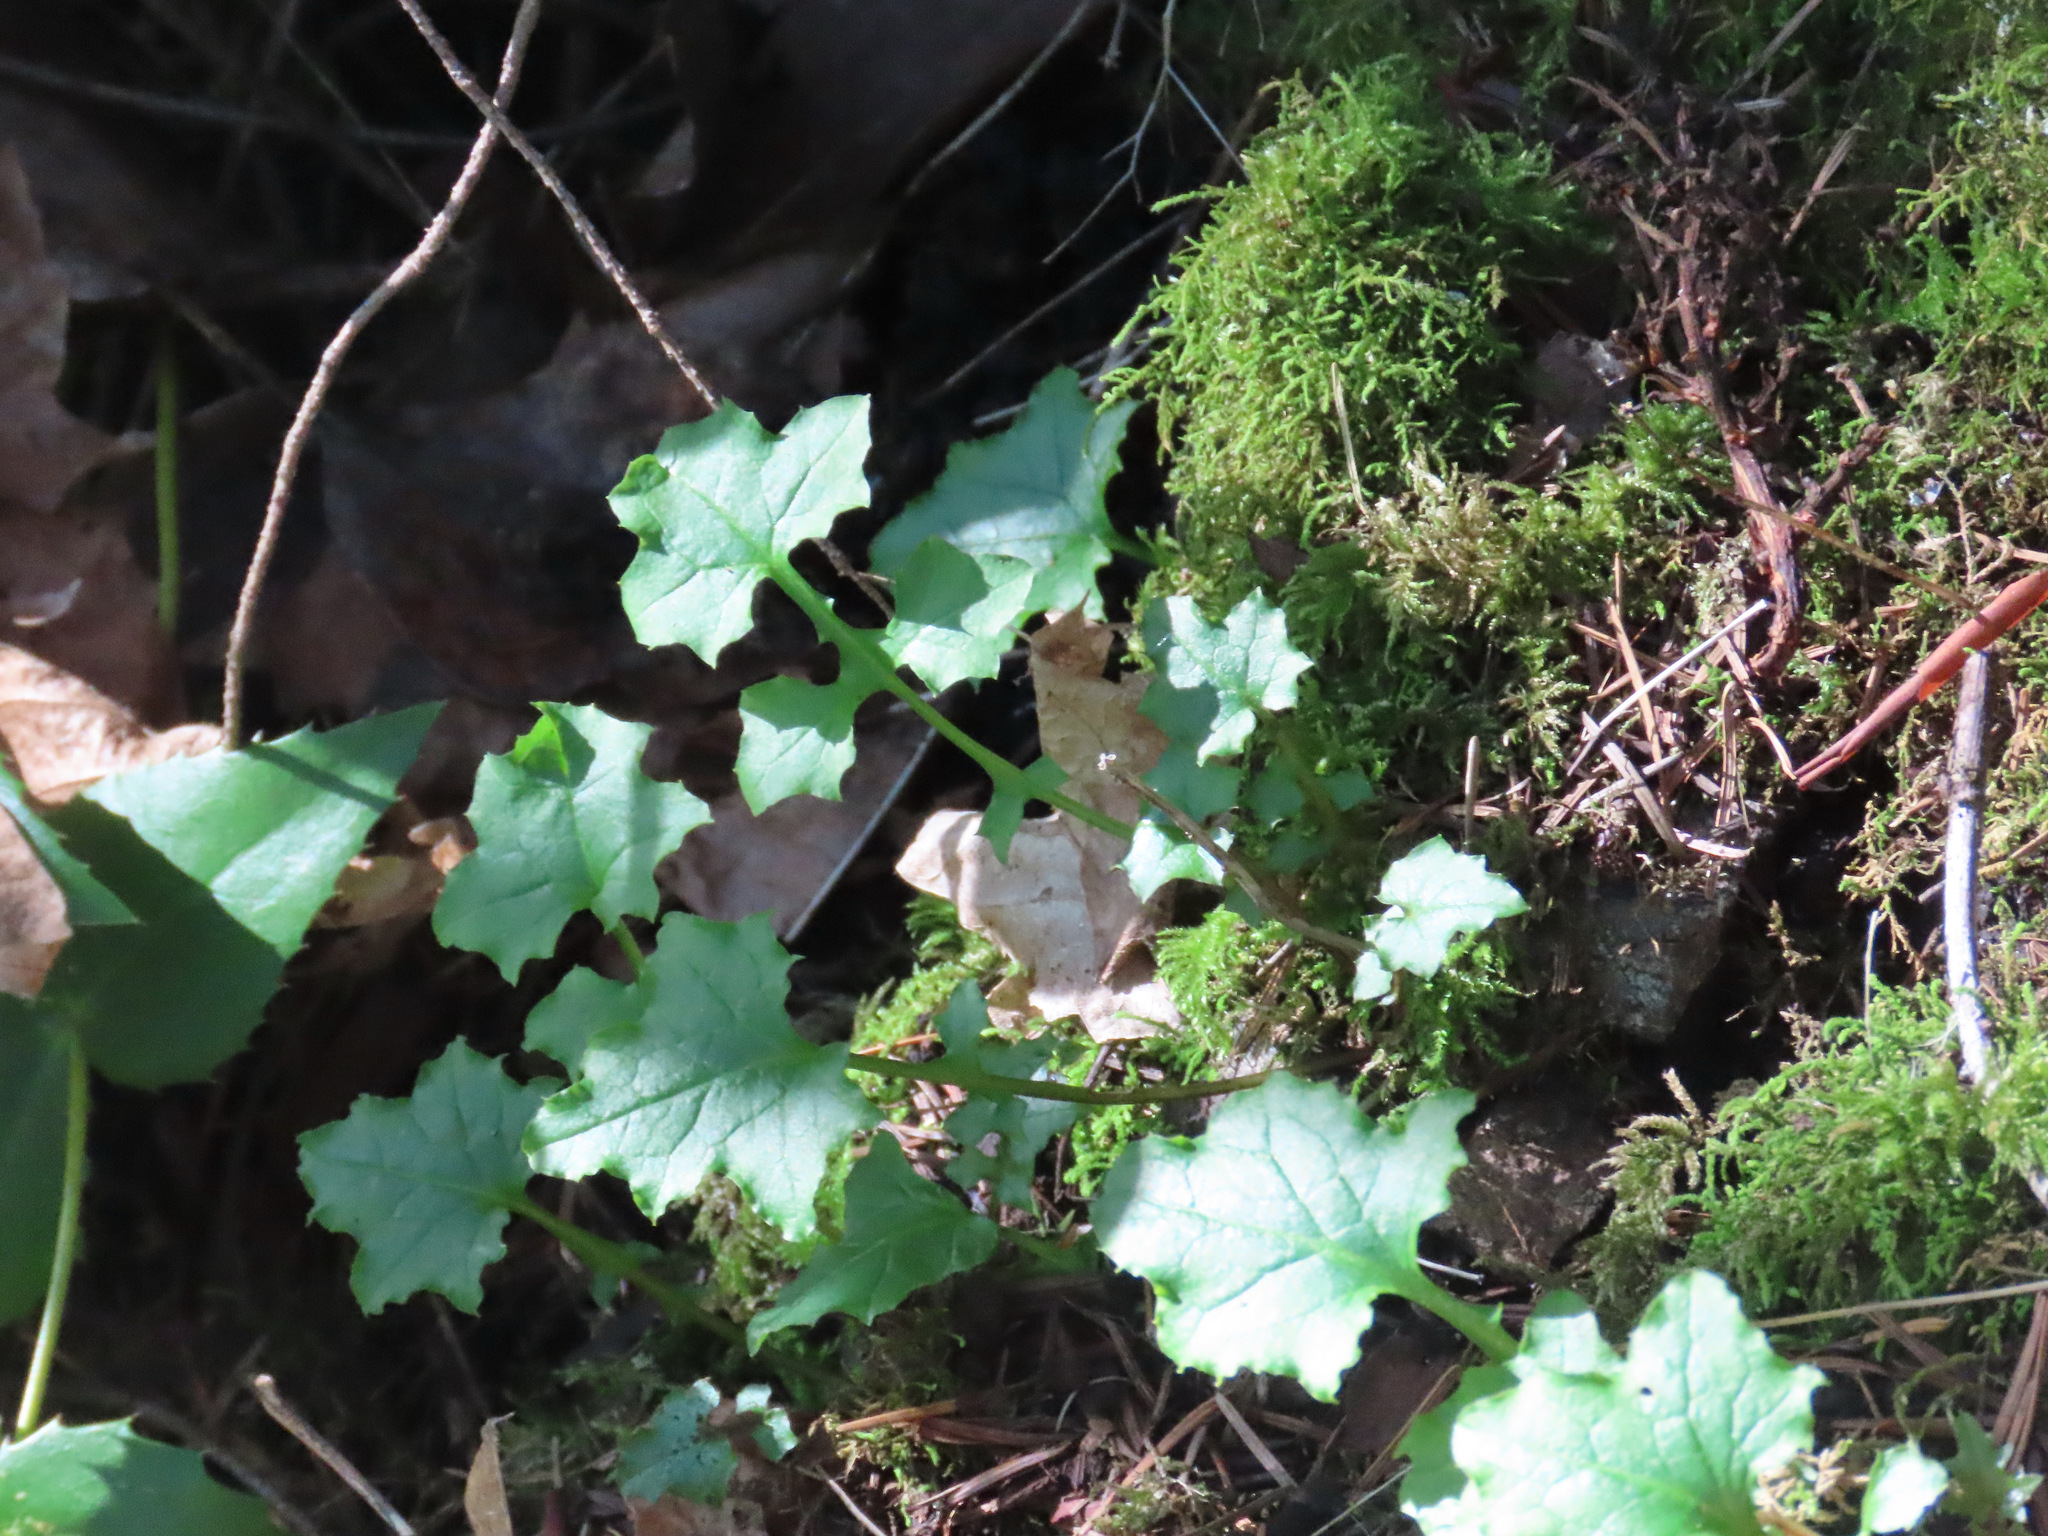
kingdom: Plantae
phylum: Tracheophyta
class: Magnoliopsida
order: Asterales
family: Asteraceae
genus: Mycelis
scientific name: Mycelis muralis
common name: Wall lettuce
